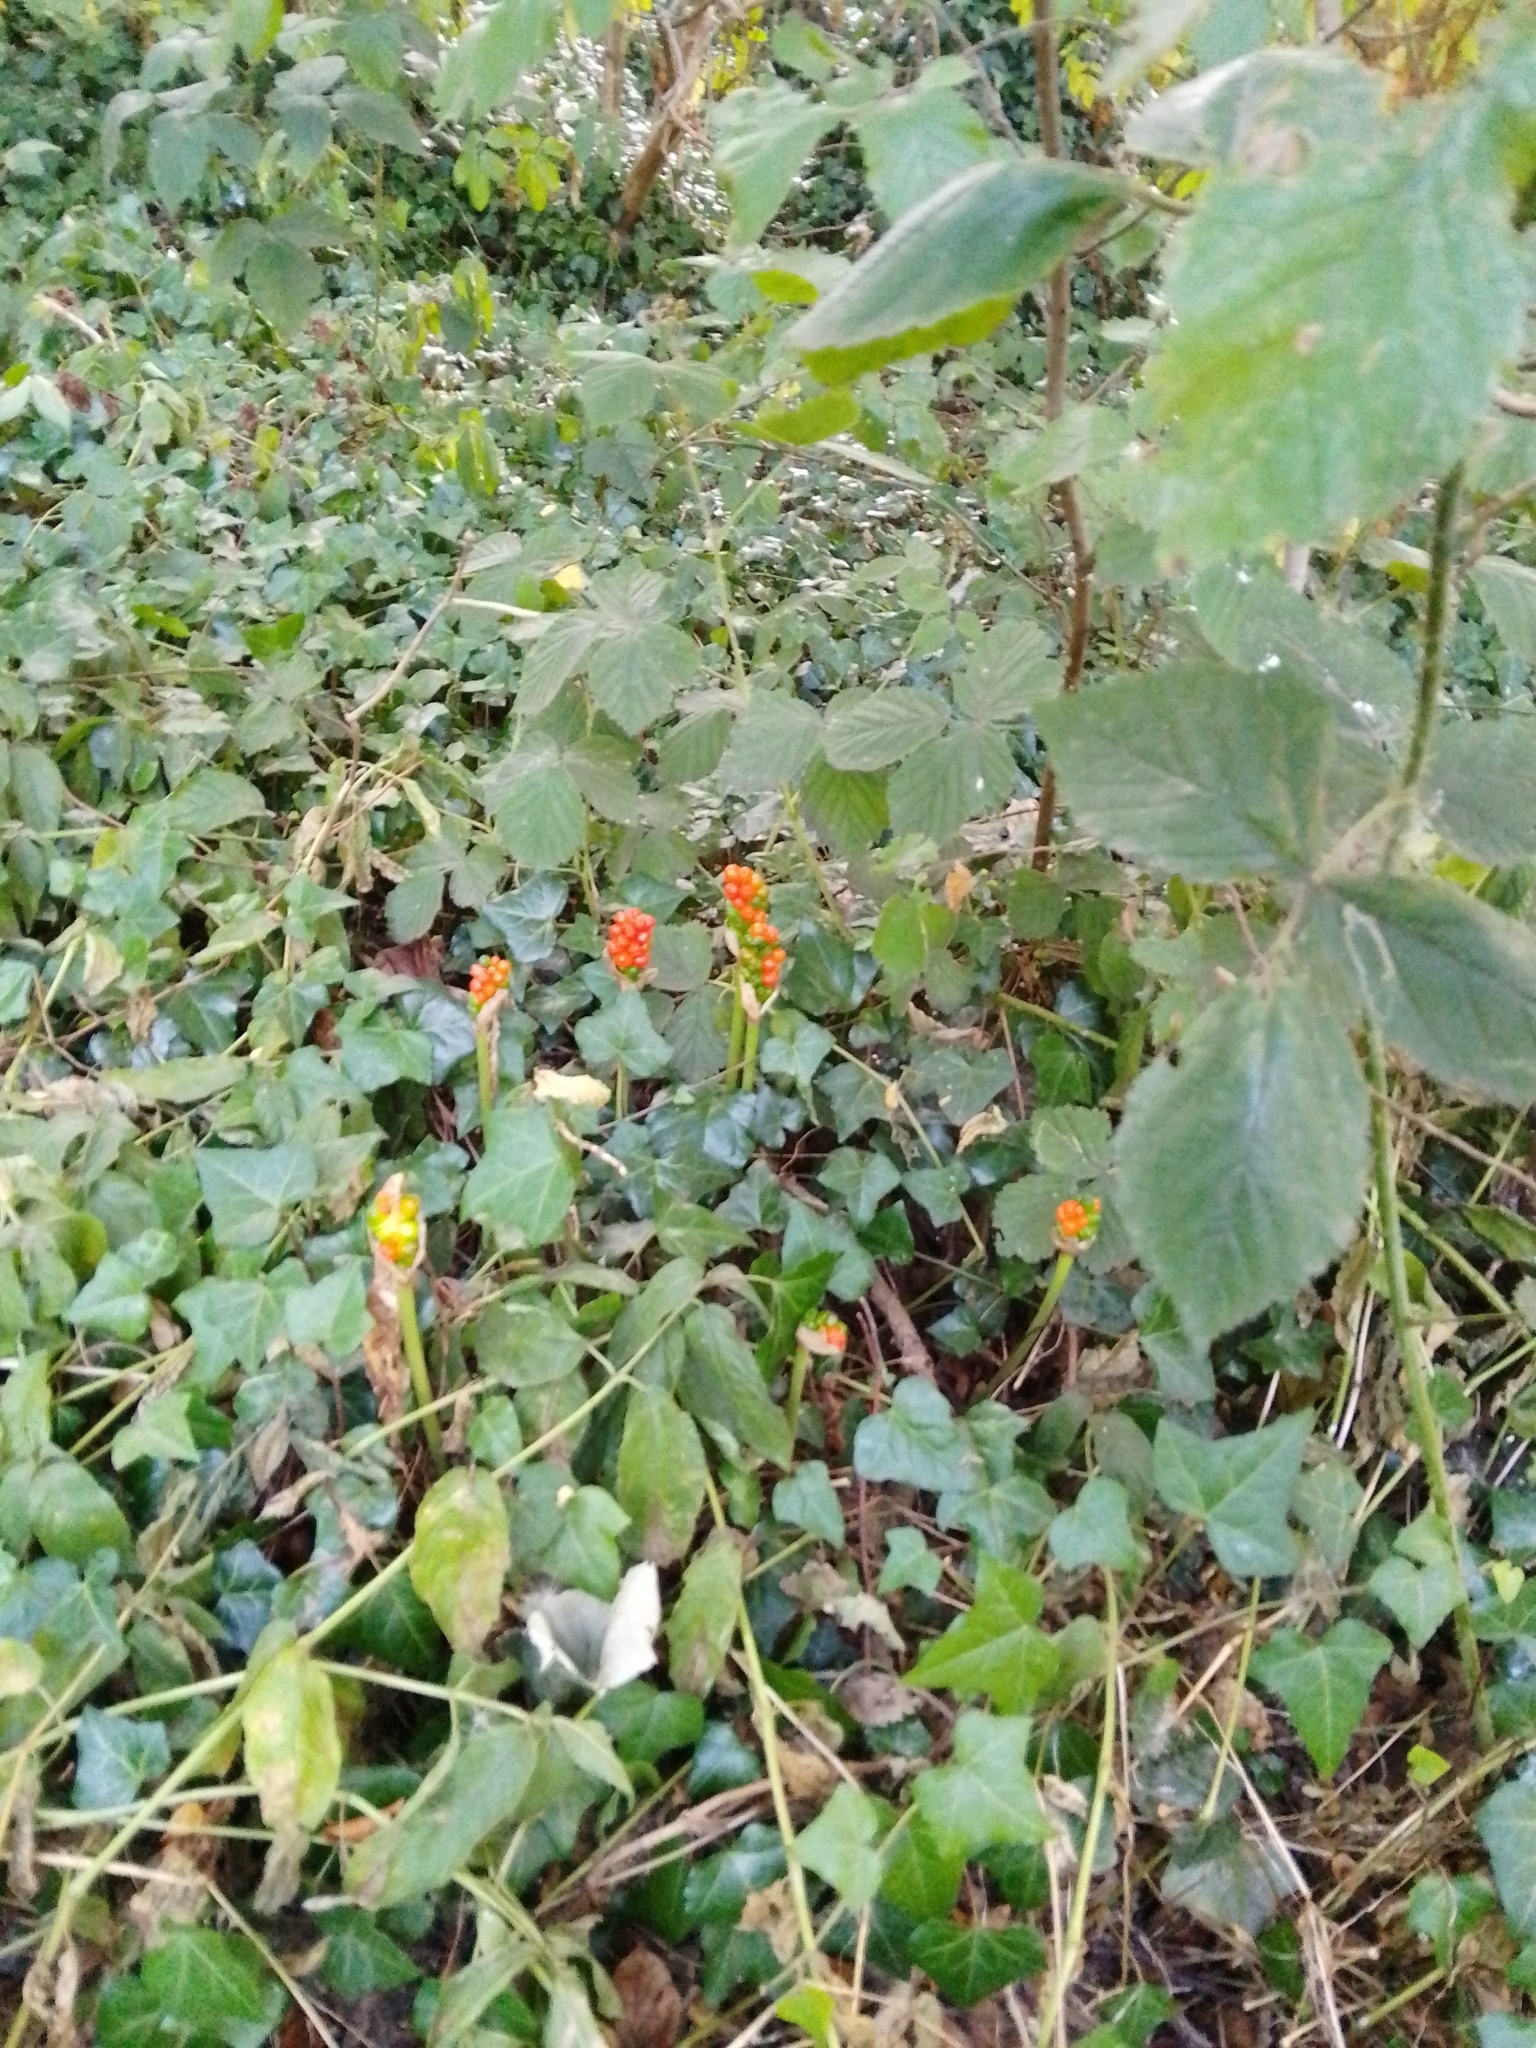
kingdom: Plantae
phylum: Tracheophyta
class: Liliopsida
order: Alismatales
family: Araceae
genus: Arum
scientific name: Arum maculatum
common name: Lords-and-ladies
